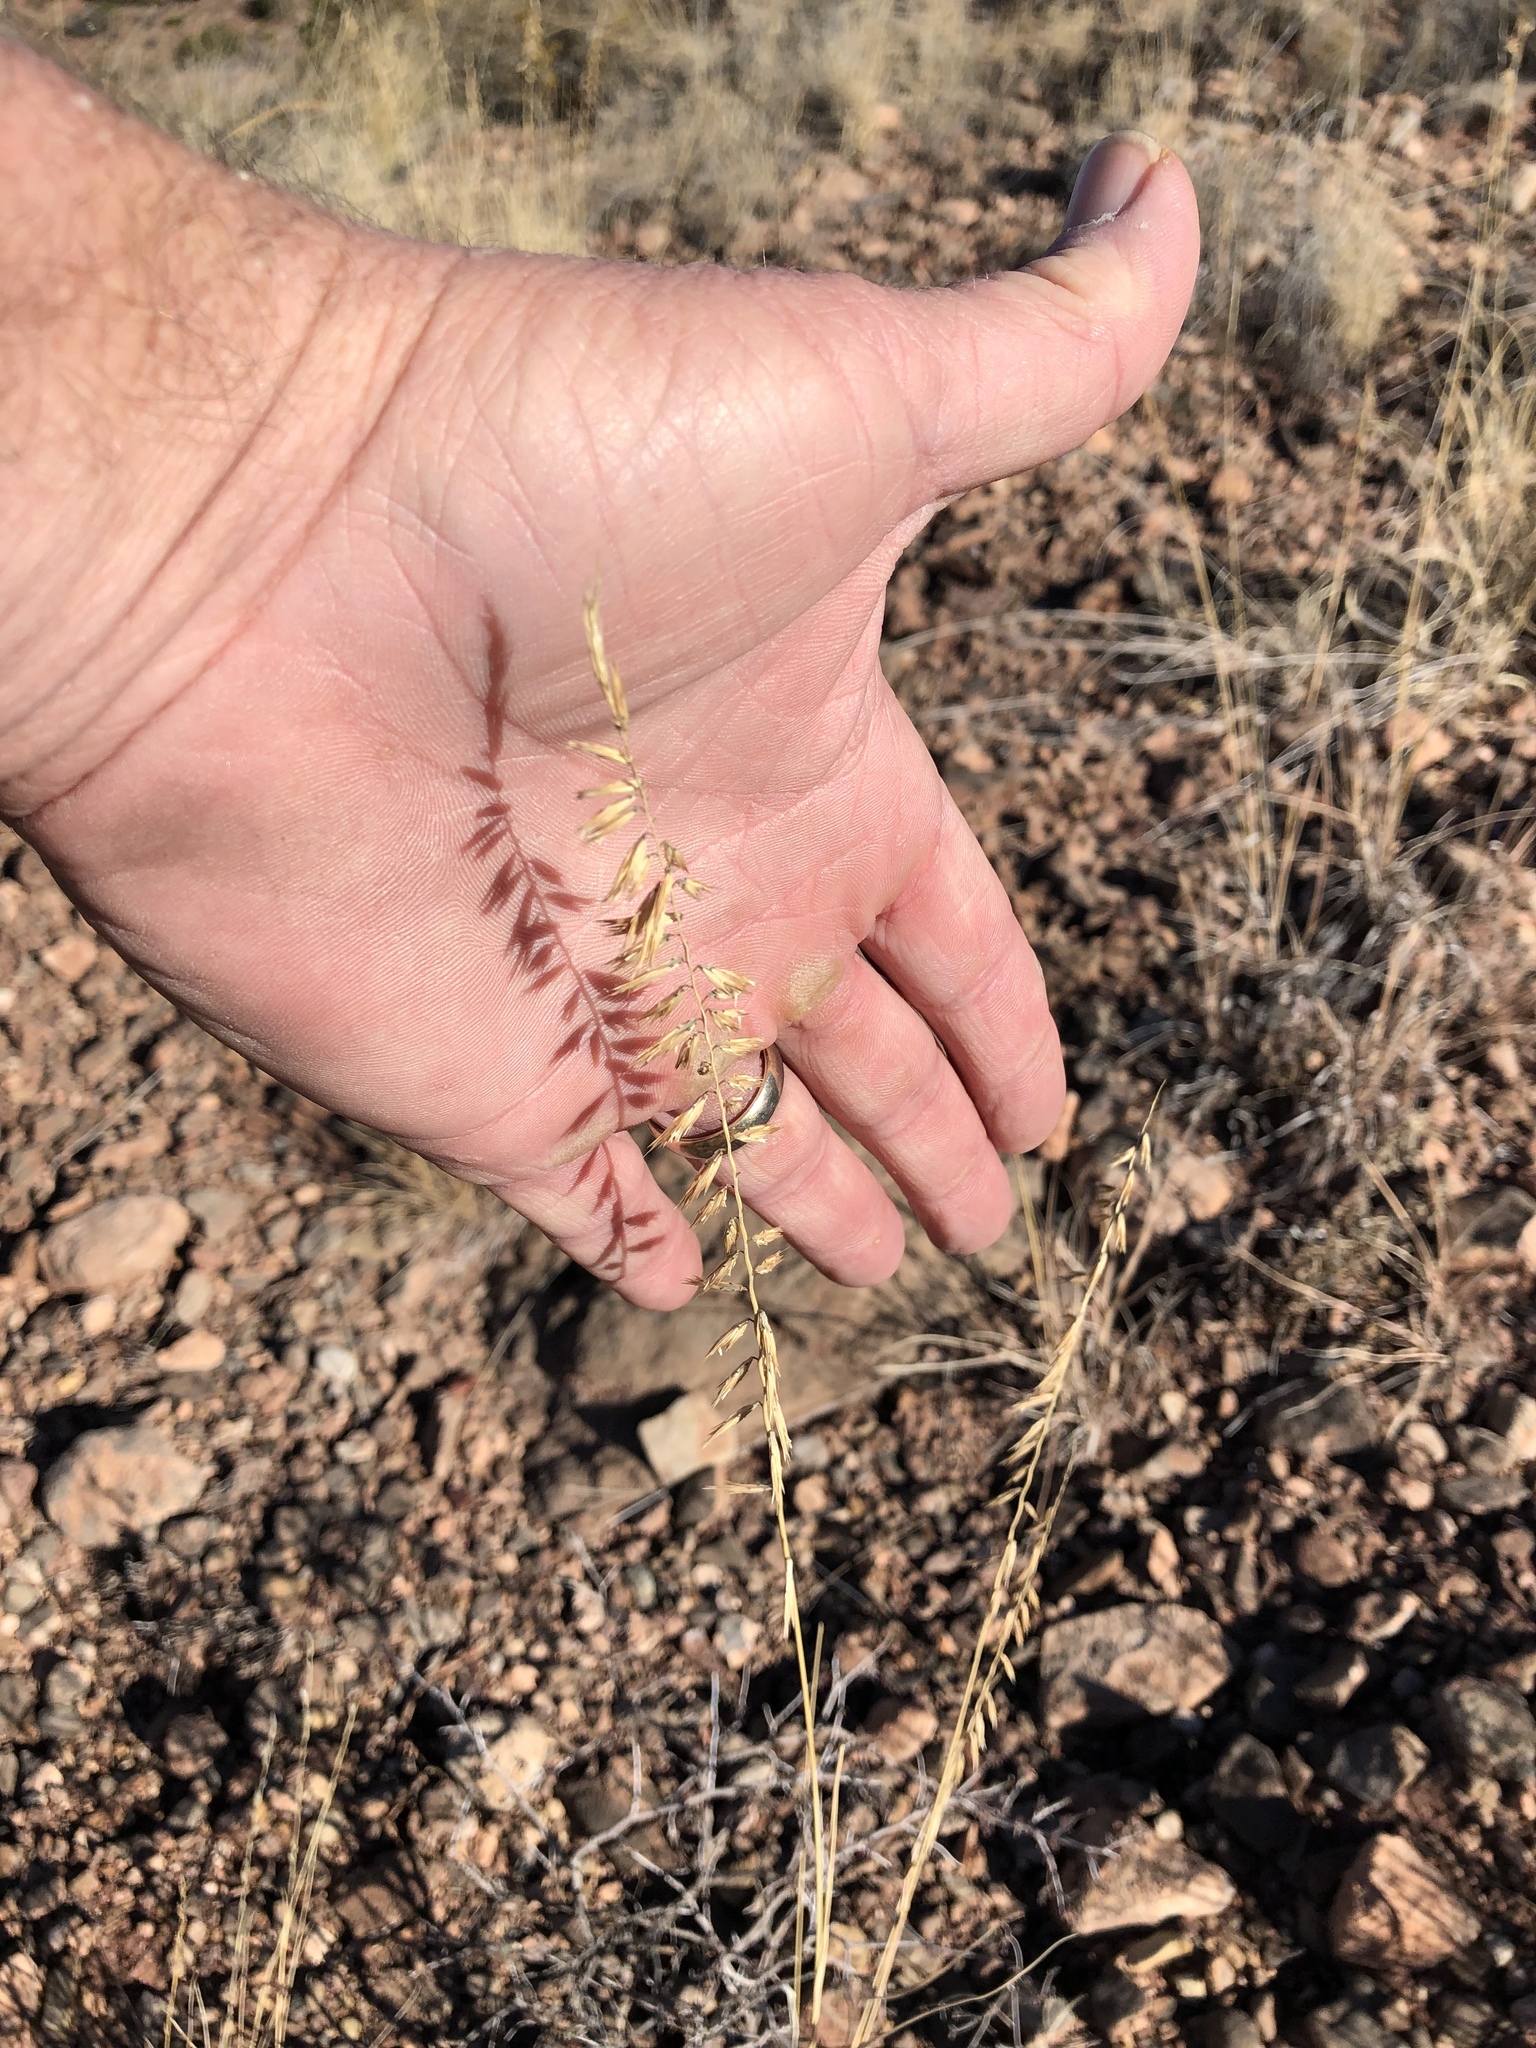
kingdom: Plantae
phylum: Tracheophyta
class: Liliopsida
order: Poales
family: Poaceae
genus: Bouteloua
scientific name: Bouteloua curtipendula
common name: Side-oats grama
